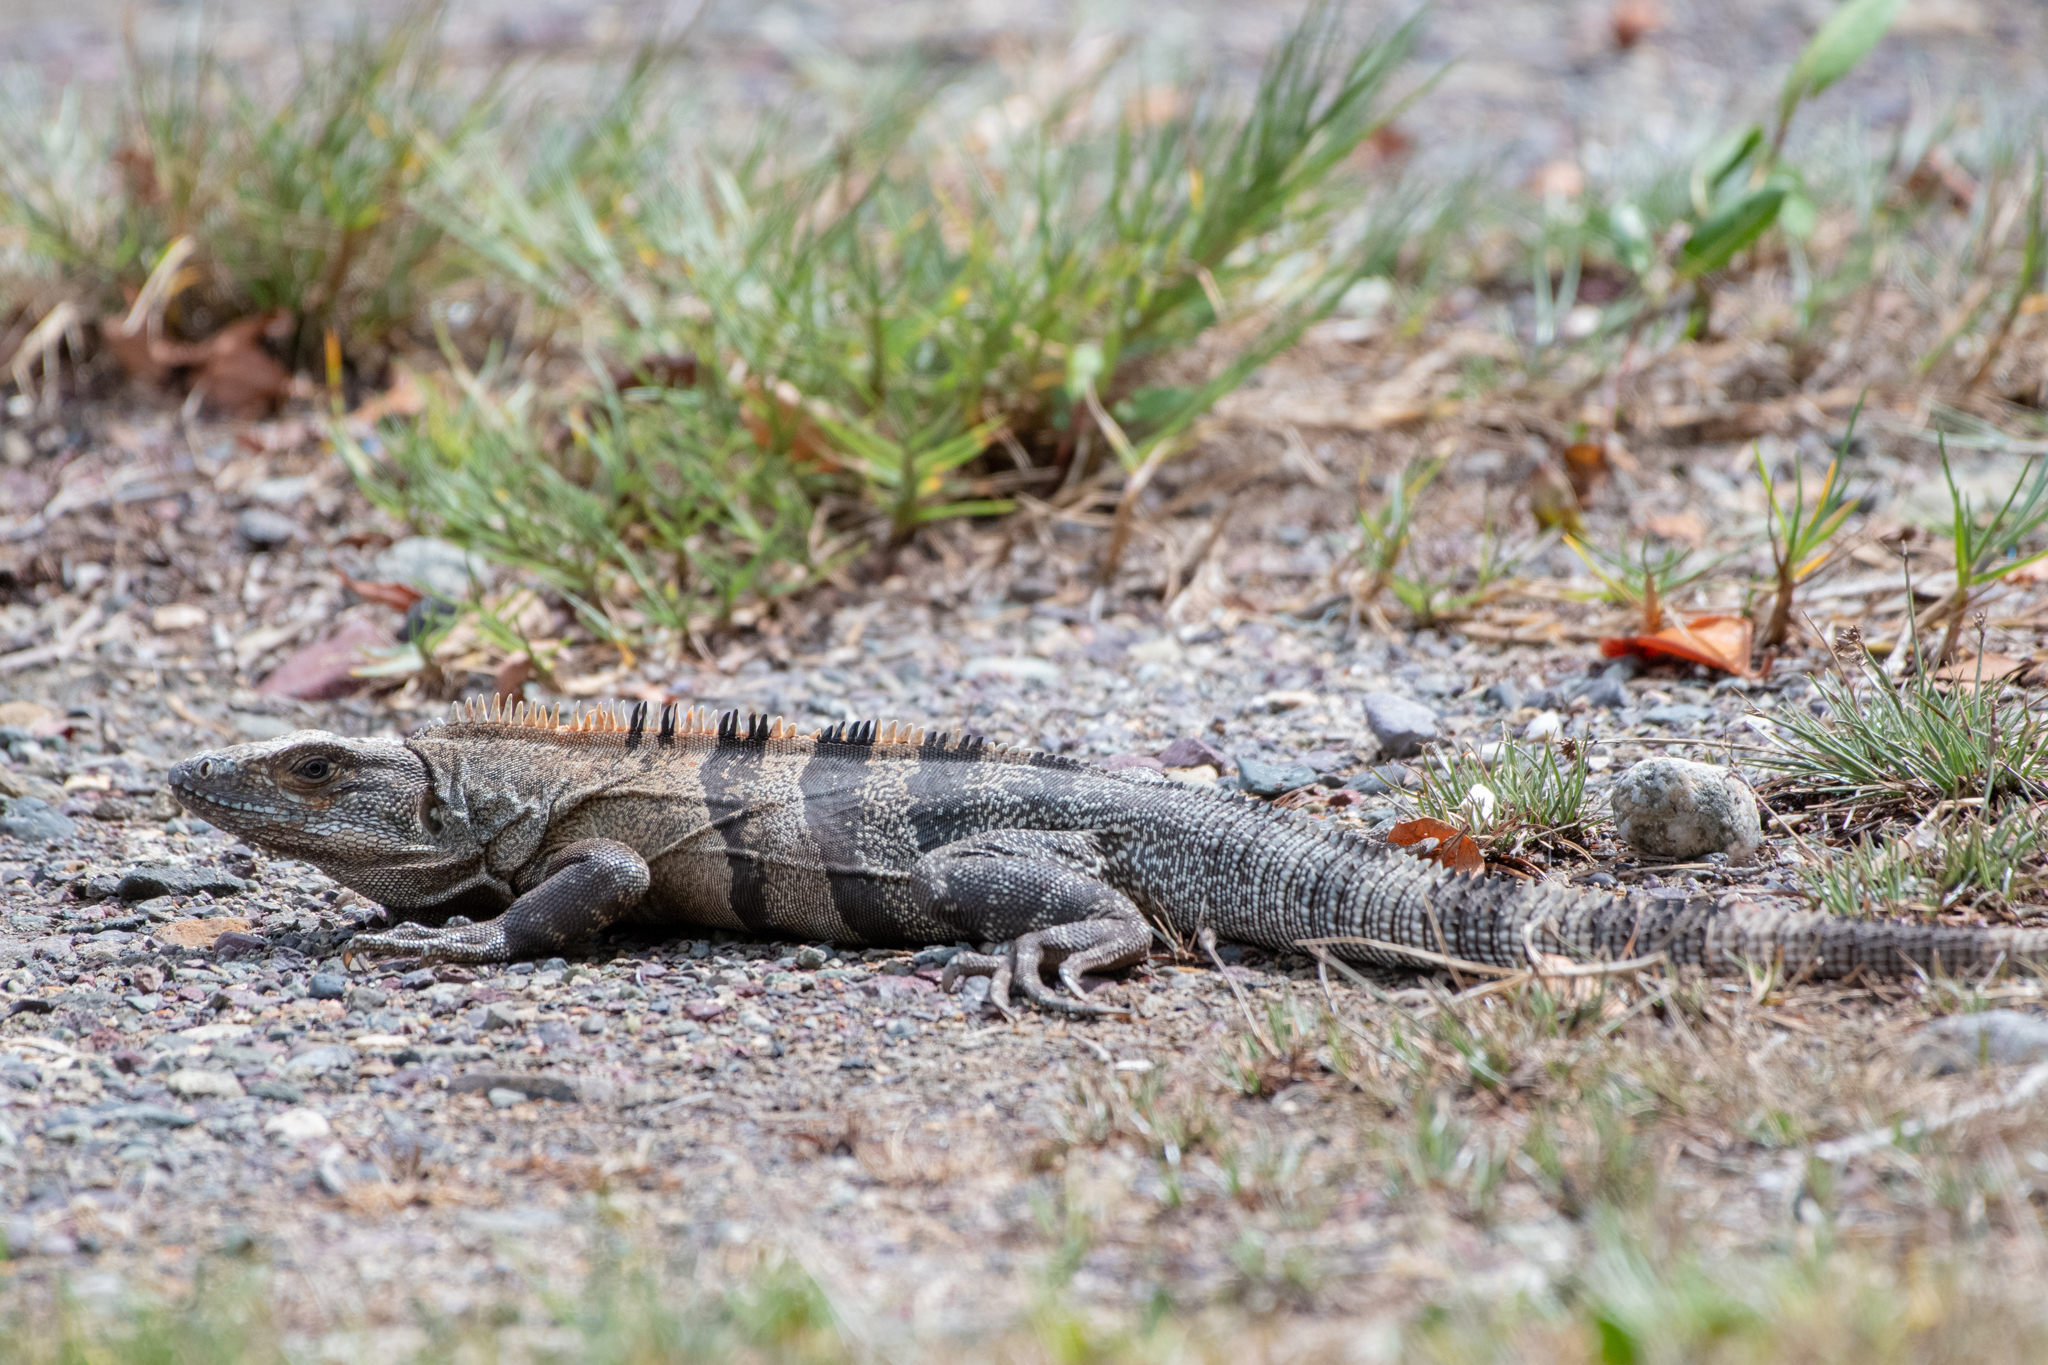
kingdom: Animalia
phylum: Chordata
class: Squamata
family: Iguanidae
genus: Ctenosaura
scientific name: Ctenosaura similis
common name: Black spiny-tailed iguana
